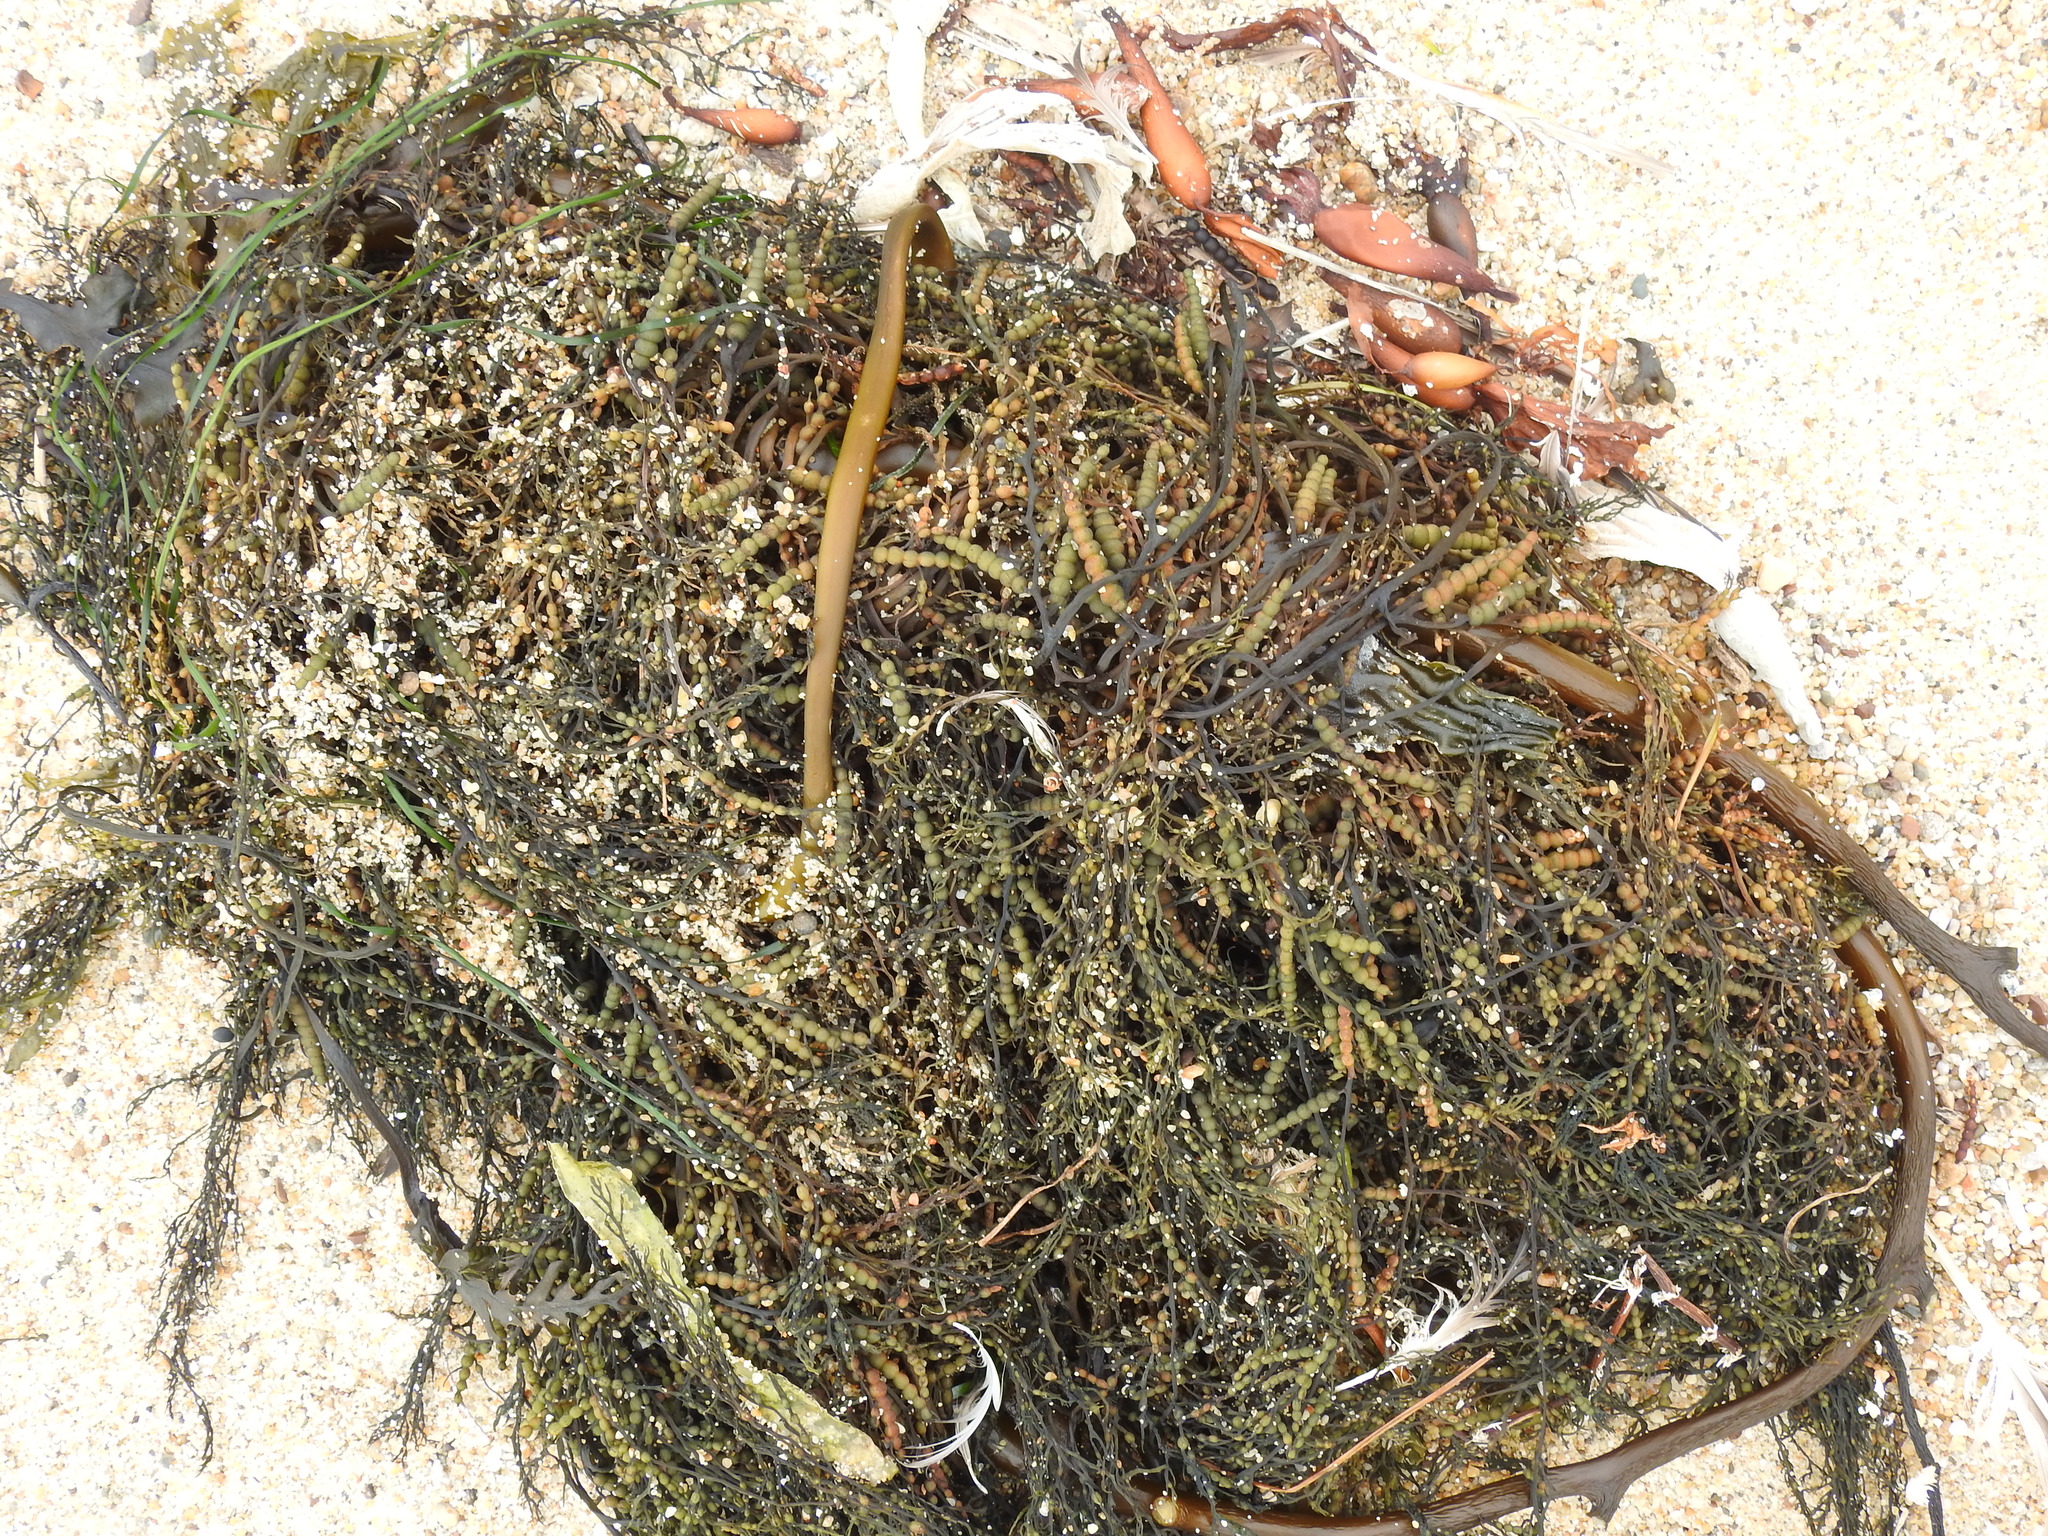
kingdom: Chromista
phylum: Ochrophyta
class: Phaeophyceae
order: Fucales
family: Sargassaceae
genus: Stephanocystis
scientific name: Stephanocystis
